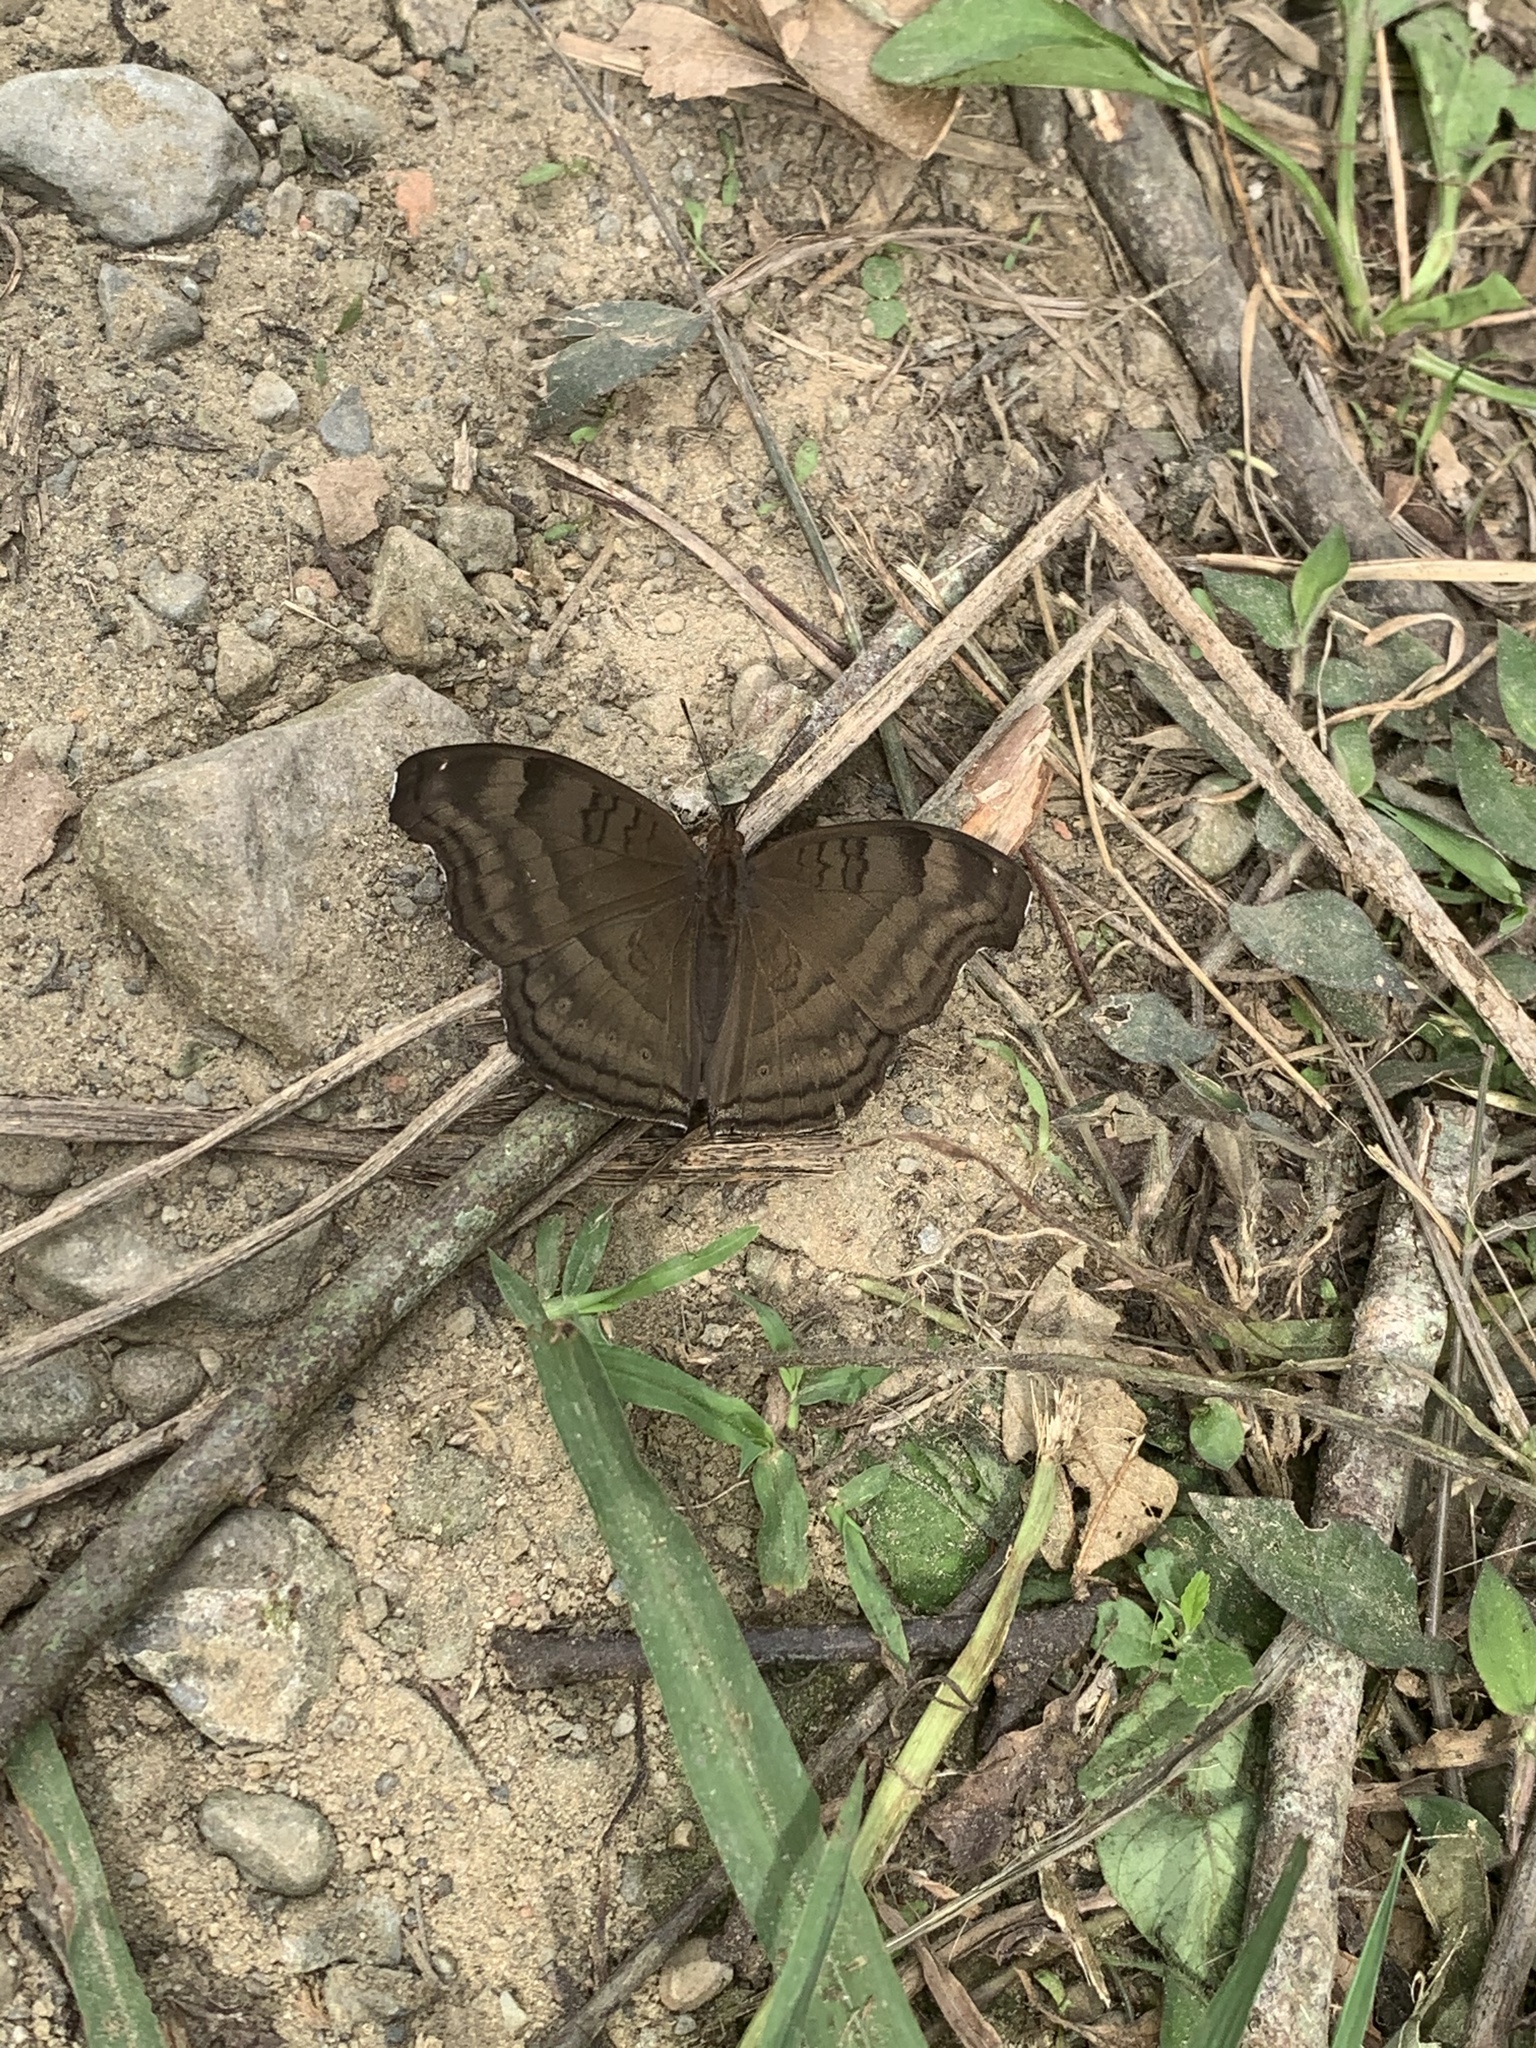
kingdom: Animalia
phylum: Arthropoda
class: Insecta
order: Lepidoptera
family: Nymphalidae
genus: Junonia
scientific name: Junonia iphita
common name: Chocolate pansy
